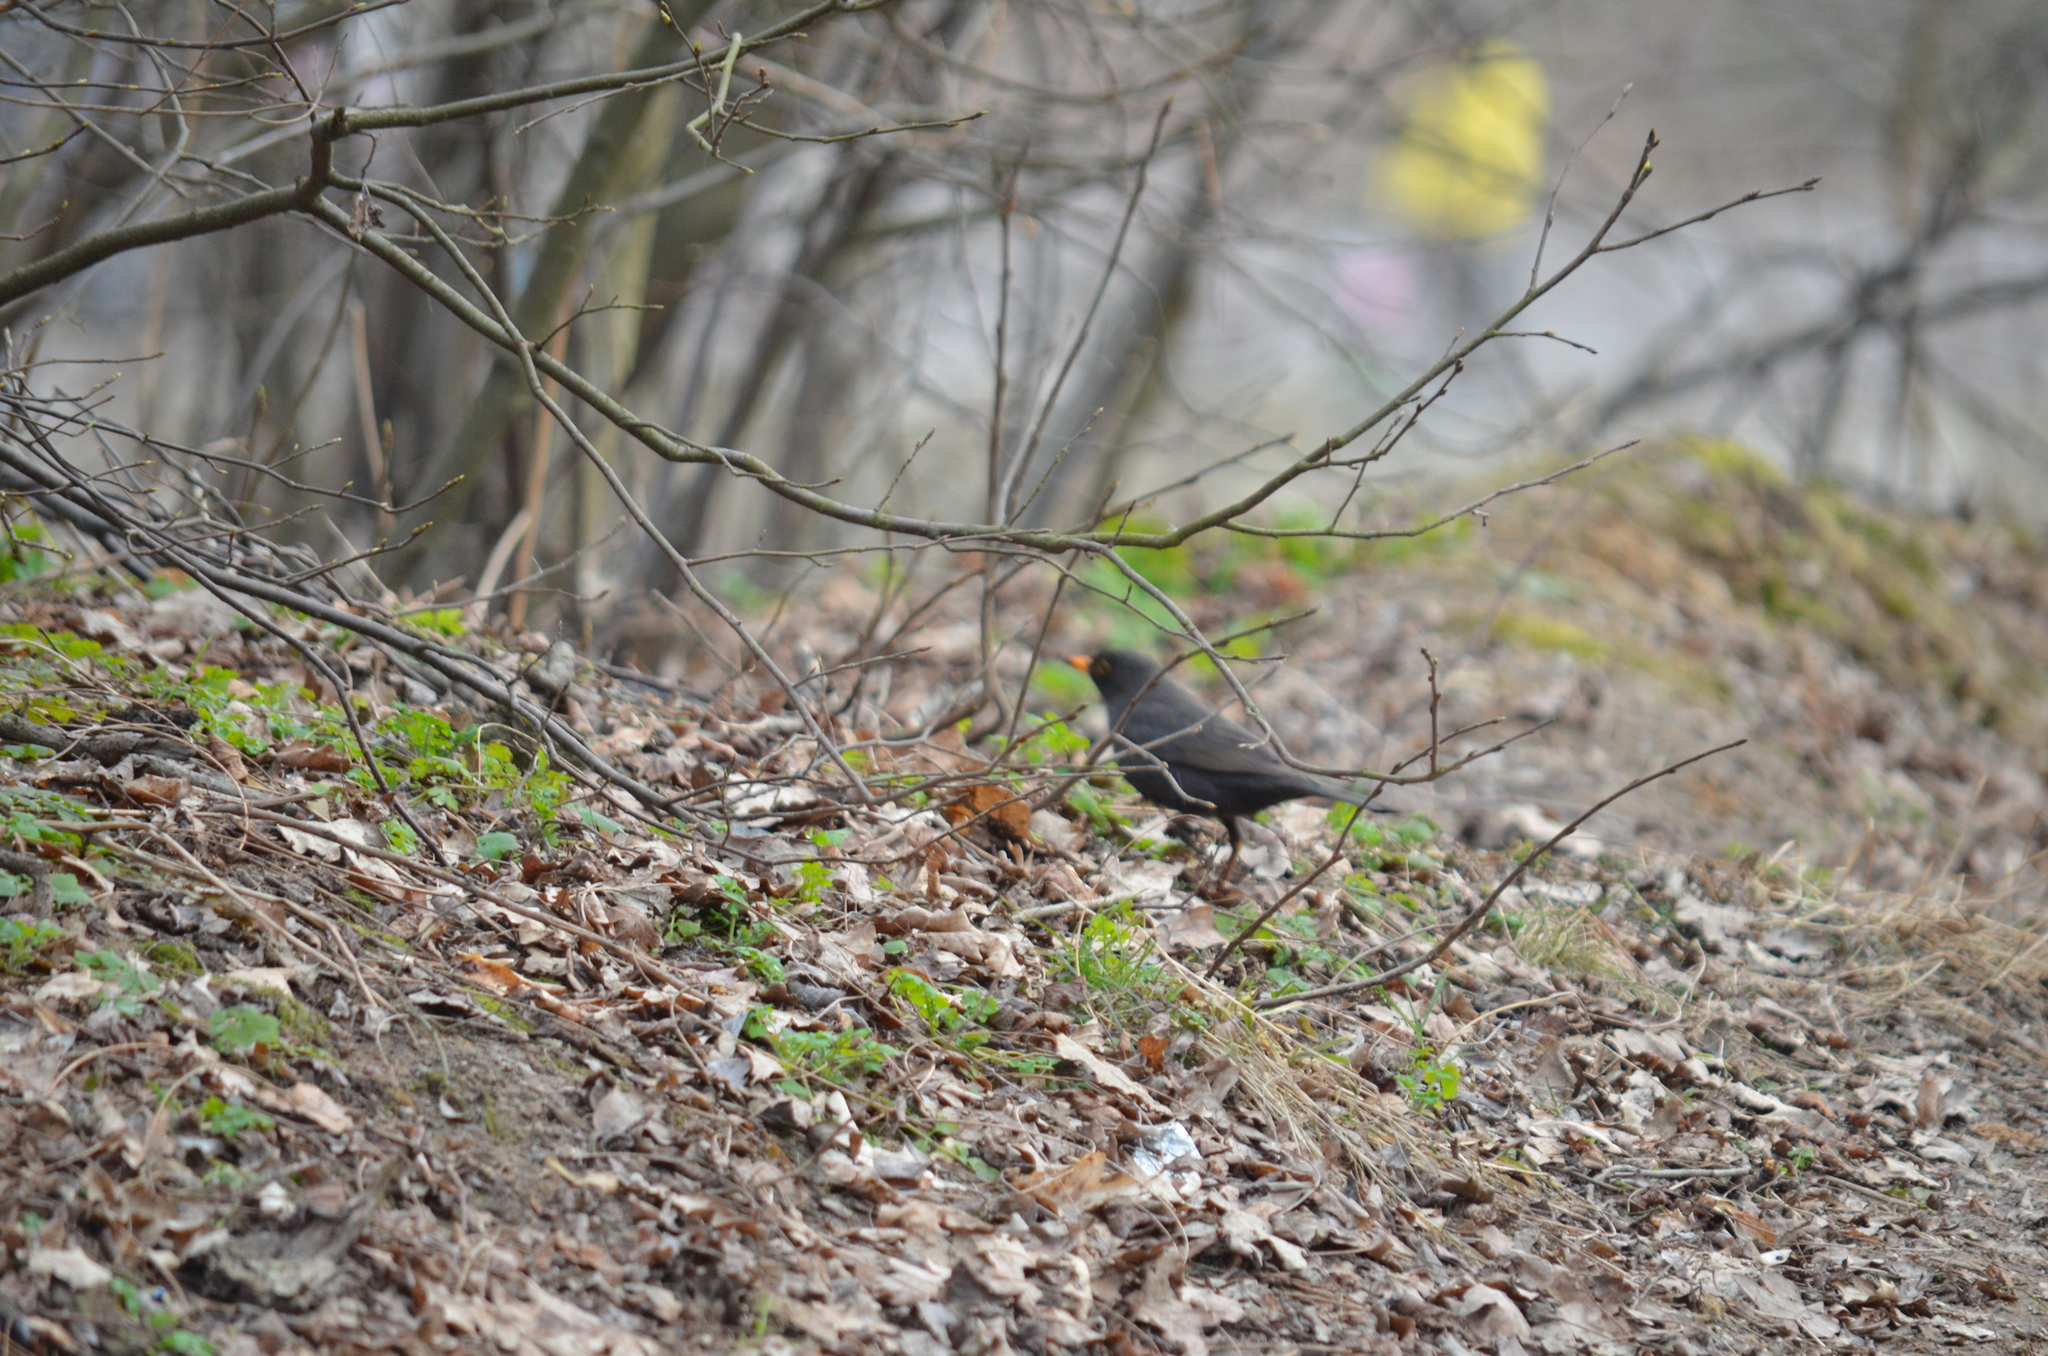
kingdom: Animalia
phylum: Chordata
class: Aves
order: Passeriformes
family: Turdidae
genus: Turdus
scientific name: Turdus merula
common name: Common blackbird
